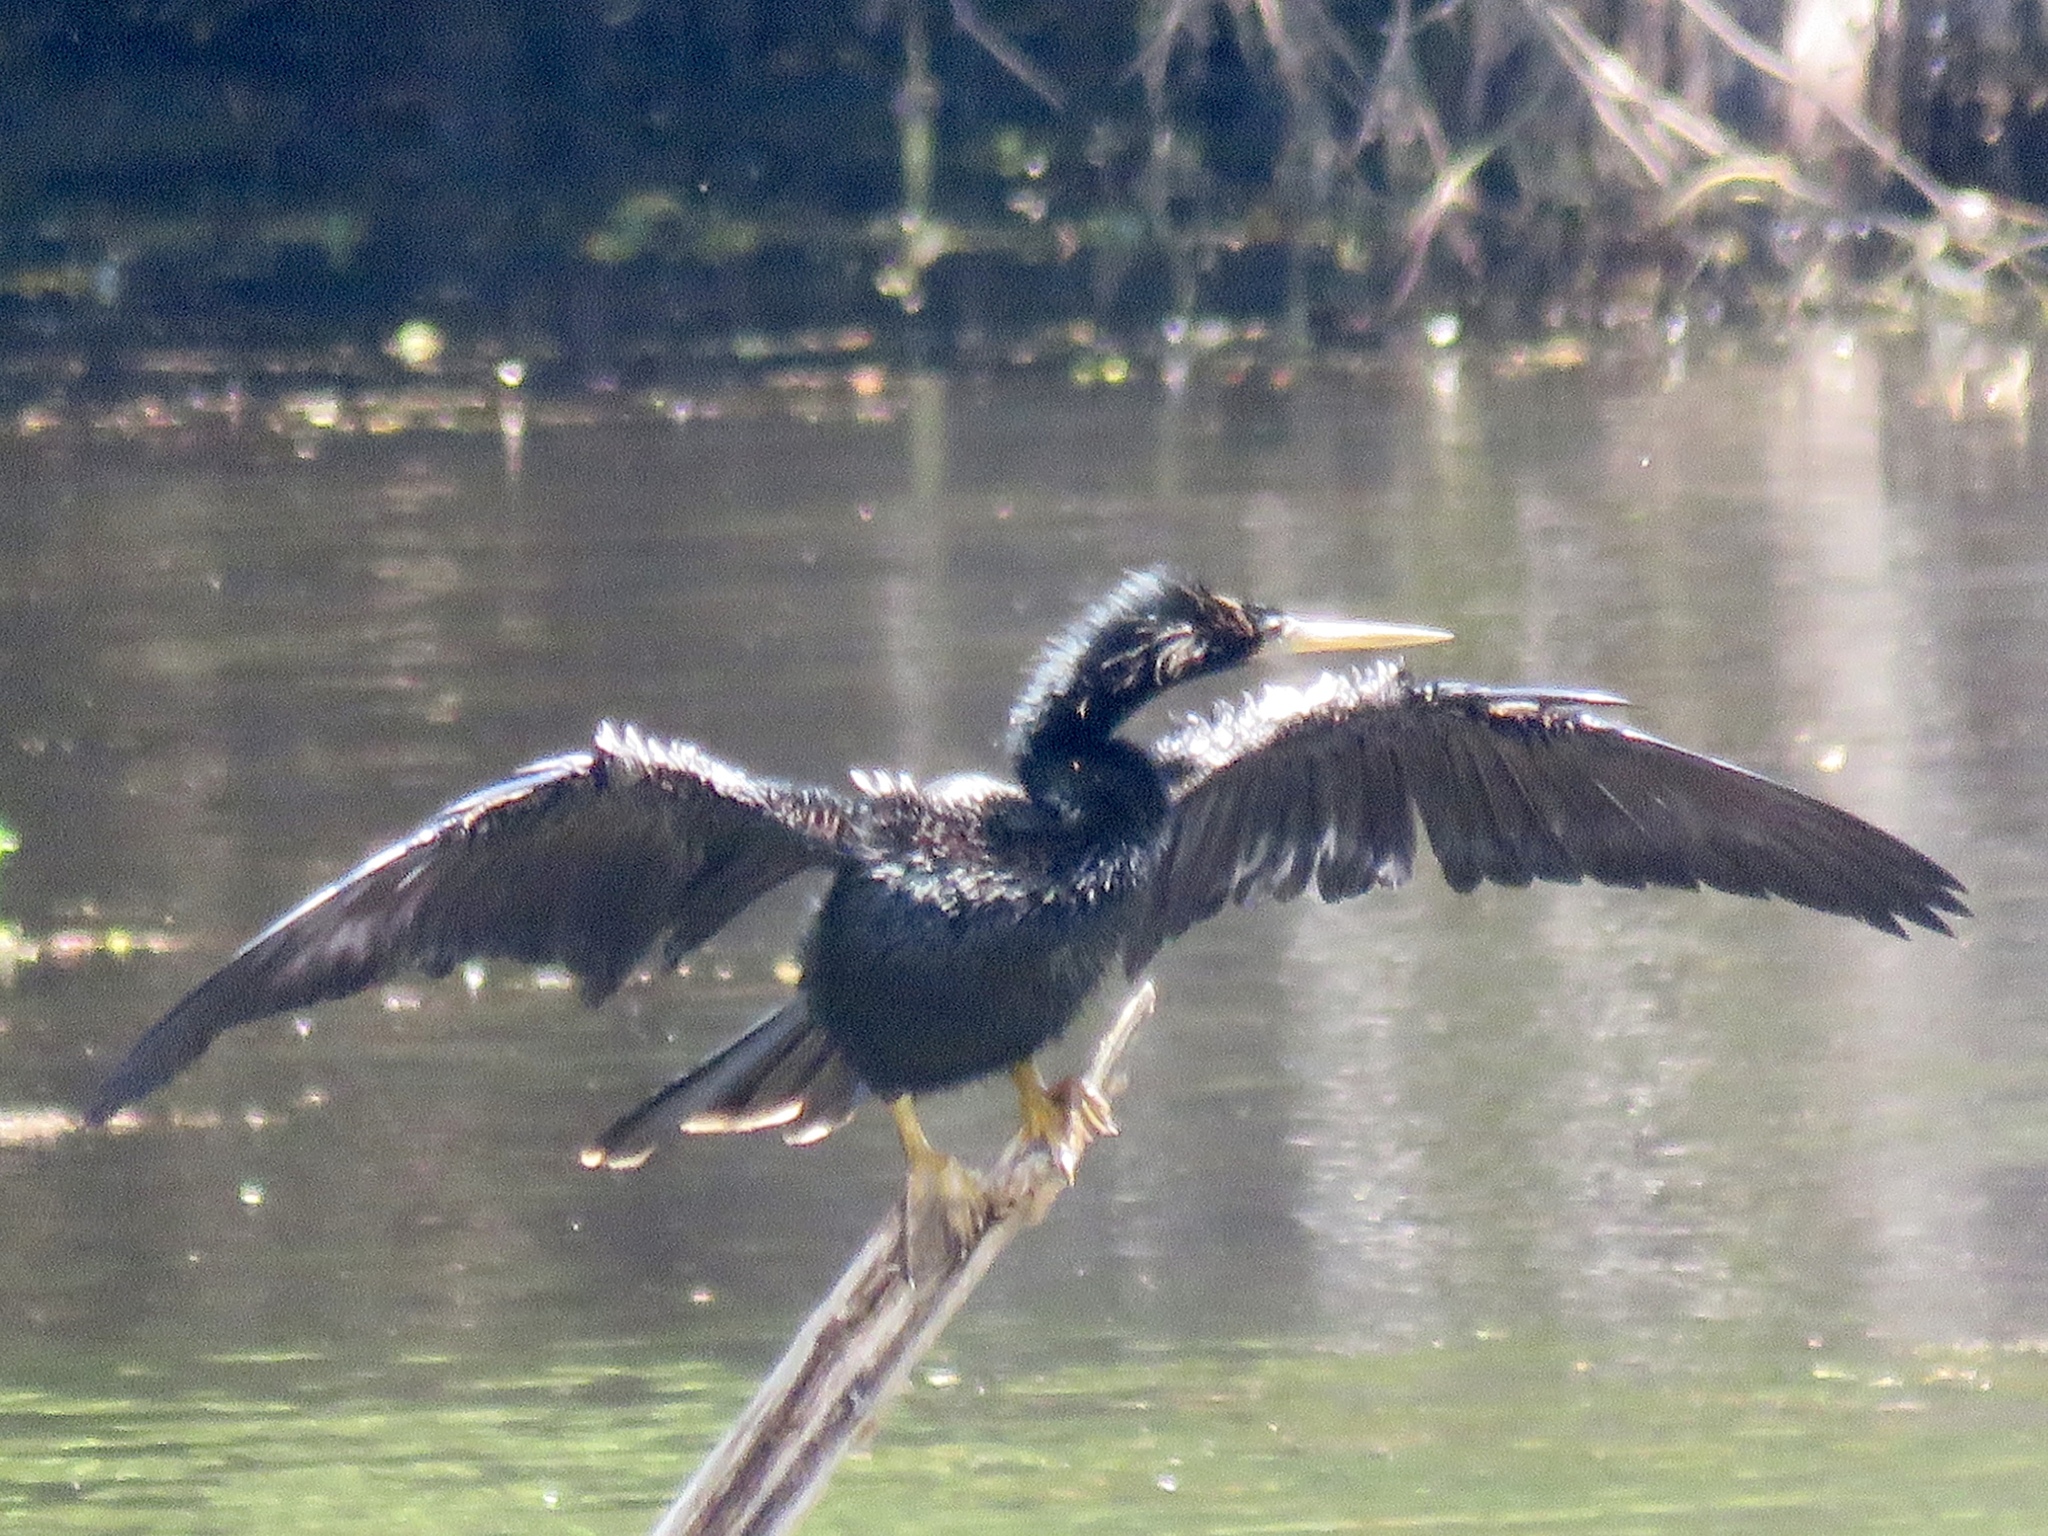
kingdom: Animalia
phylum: Chordata
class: Aves
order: Suliformes
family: Anhingidae
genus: Anhinga
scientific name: Anhinga anhinga
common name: Anhinga
